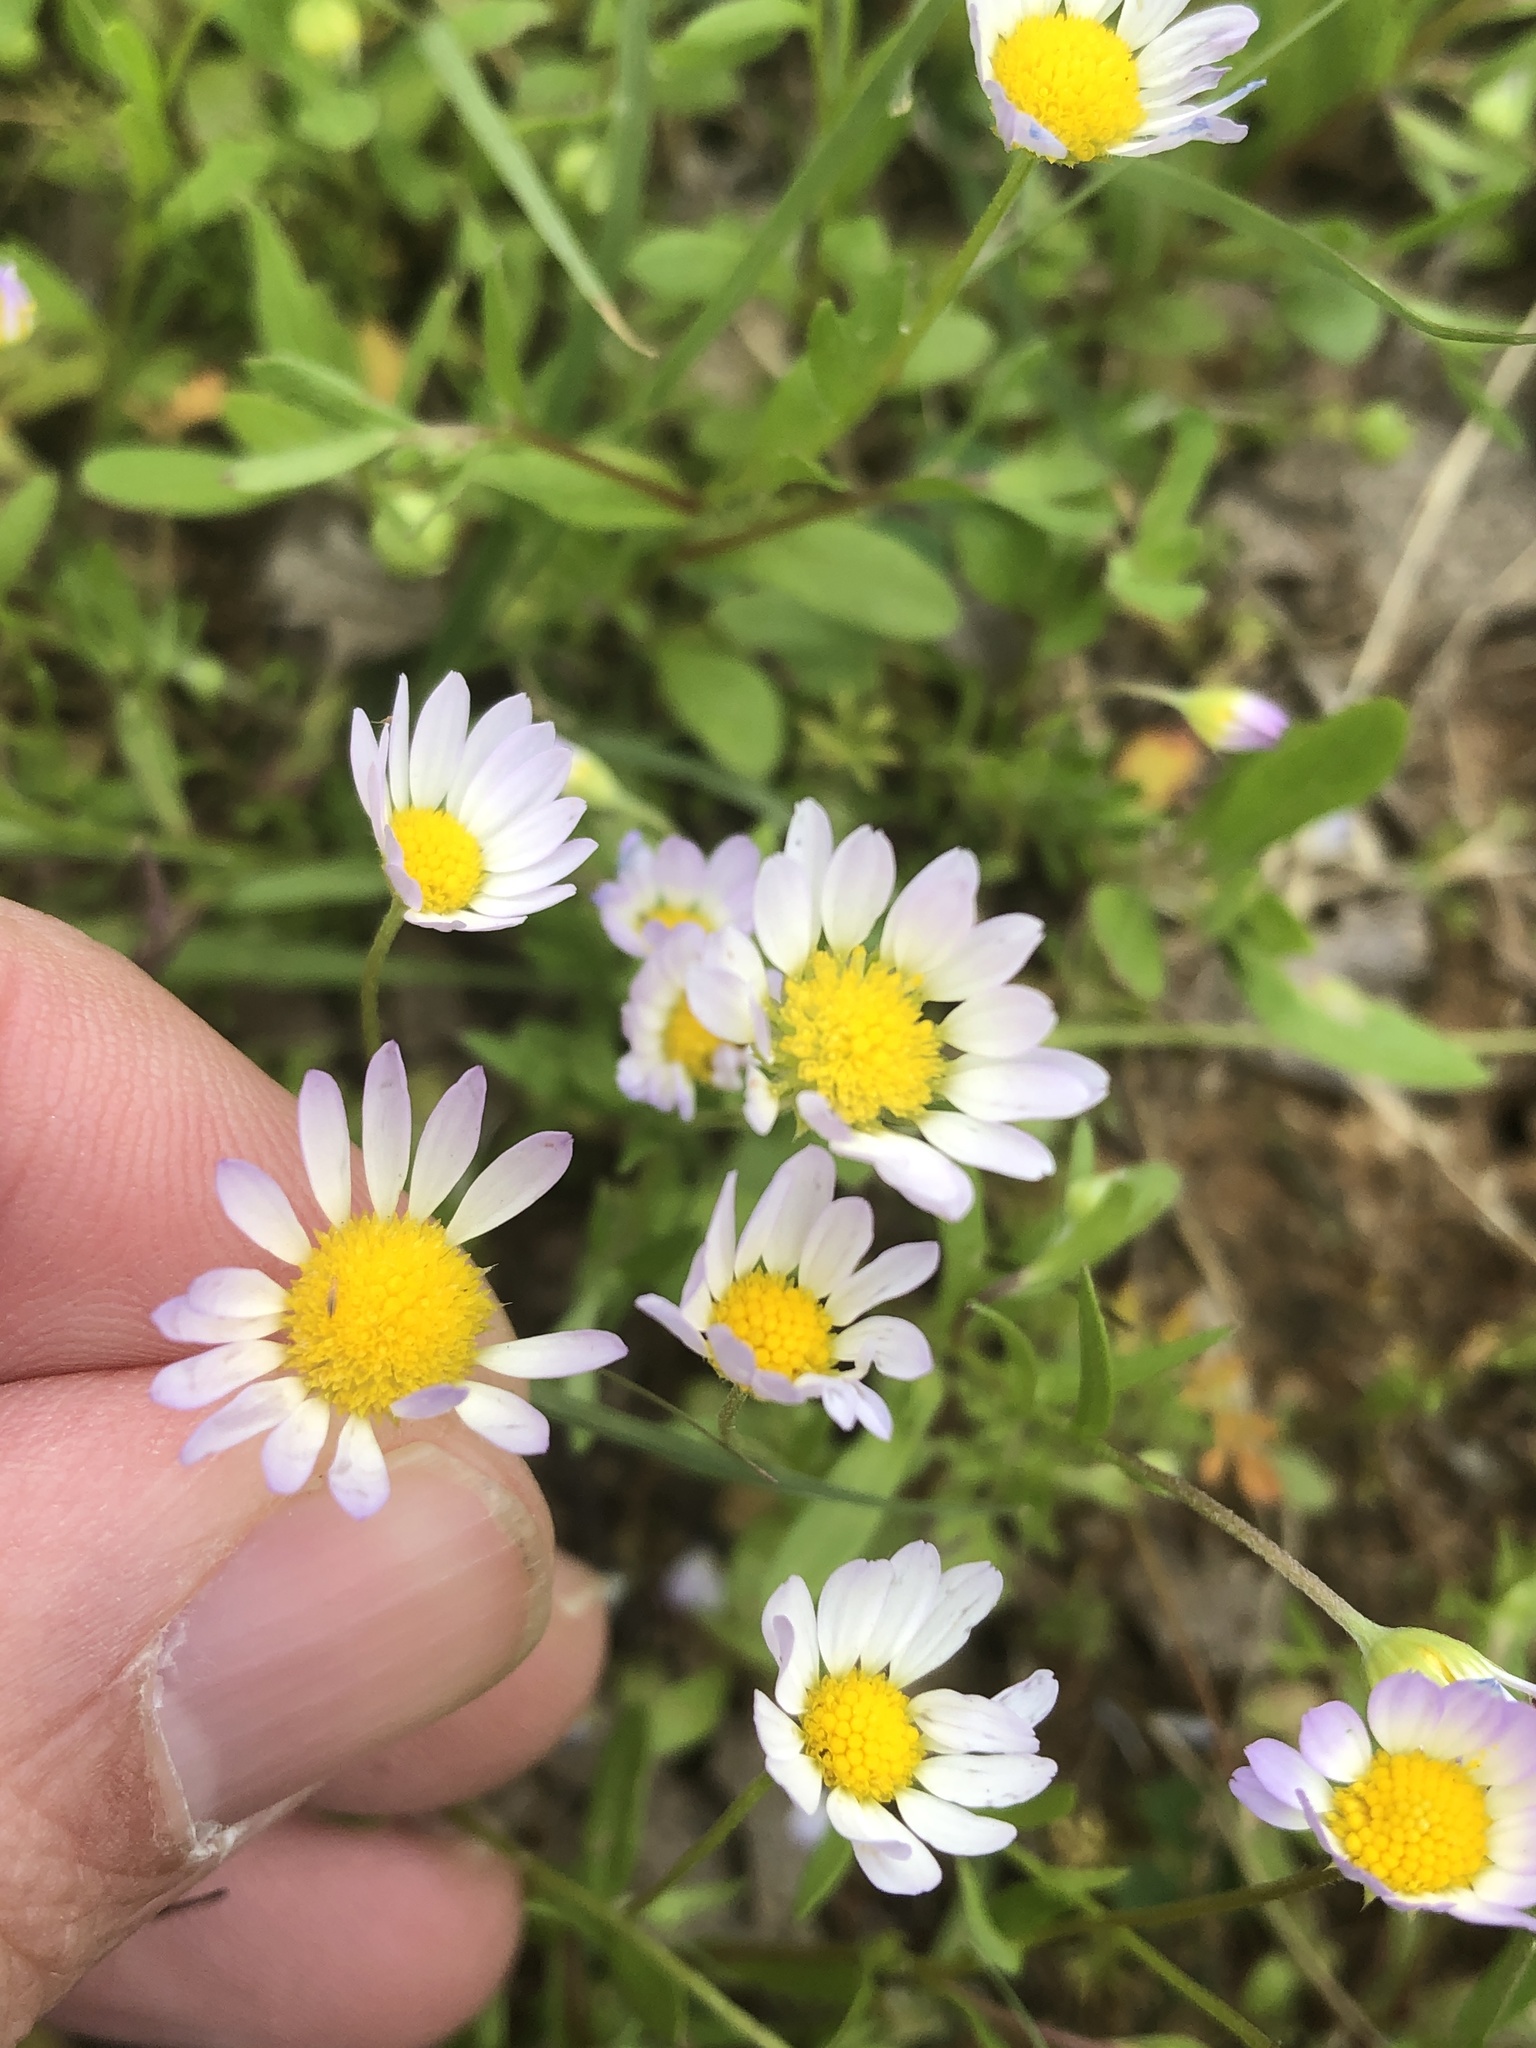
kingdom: Plantae
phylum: Tracheophyta
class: Magnoliopsida
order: Asterales
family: Asteraceae
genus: Aphanostephus
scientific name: Aphanostephus ramosissimus
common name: Plains lazy daisy
